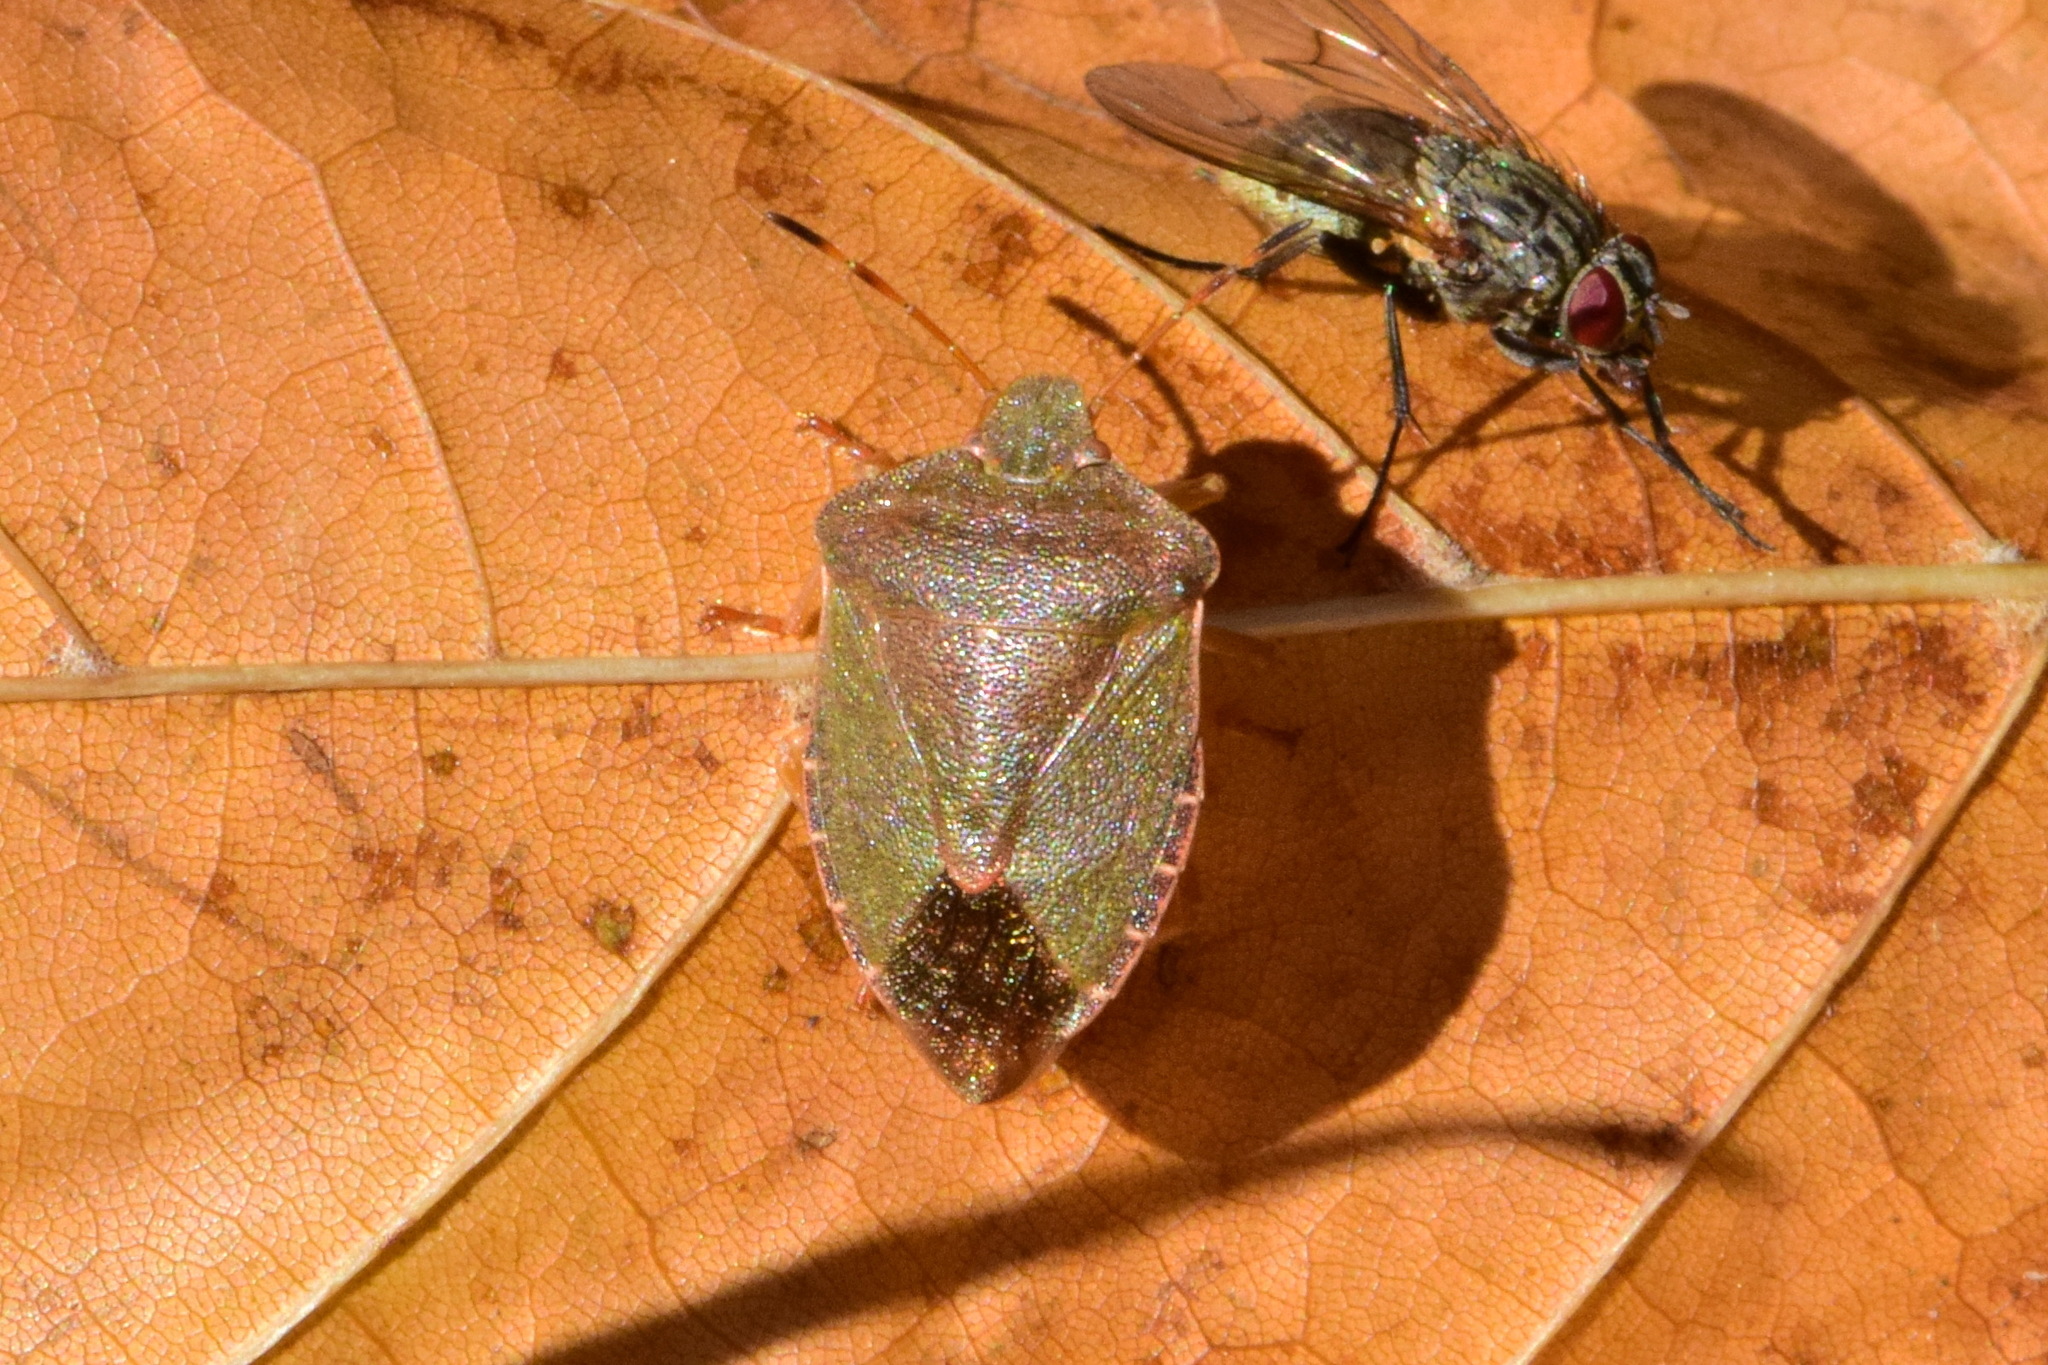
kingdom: Animalia
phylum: Arthropoda
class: Insecta
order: Hemiptera
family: Pentatomidae
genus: Palomena
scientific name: Palomena prasina
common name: Green shieldbug
